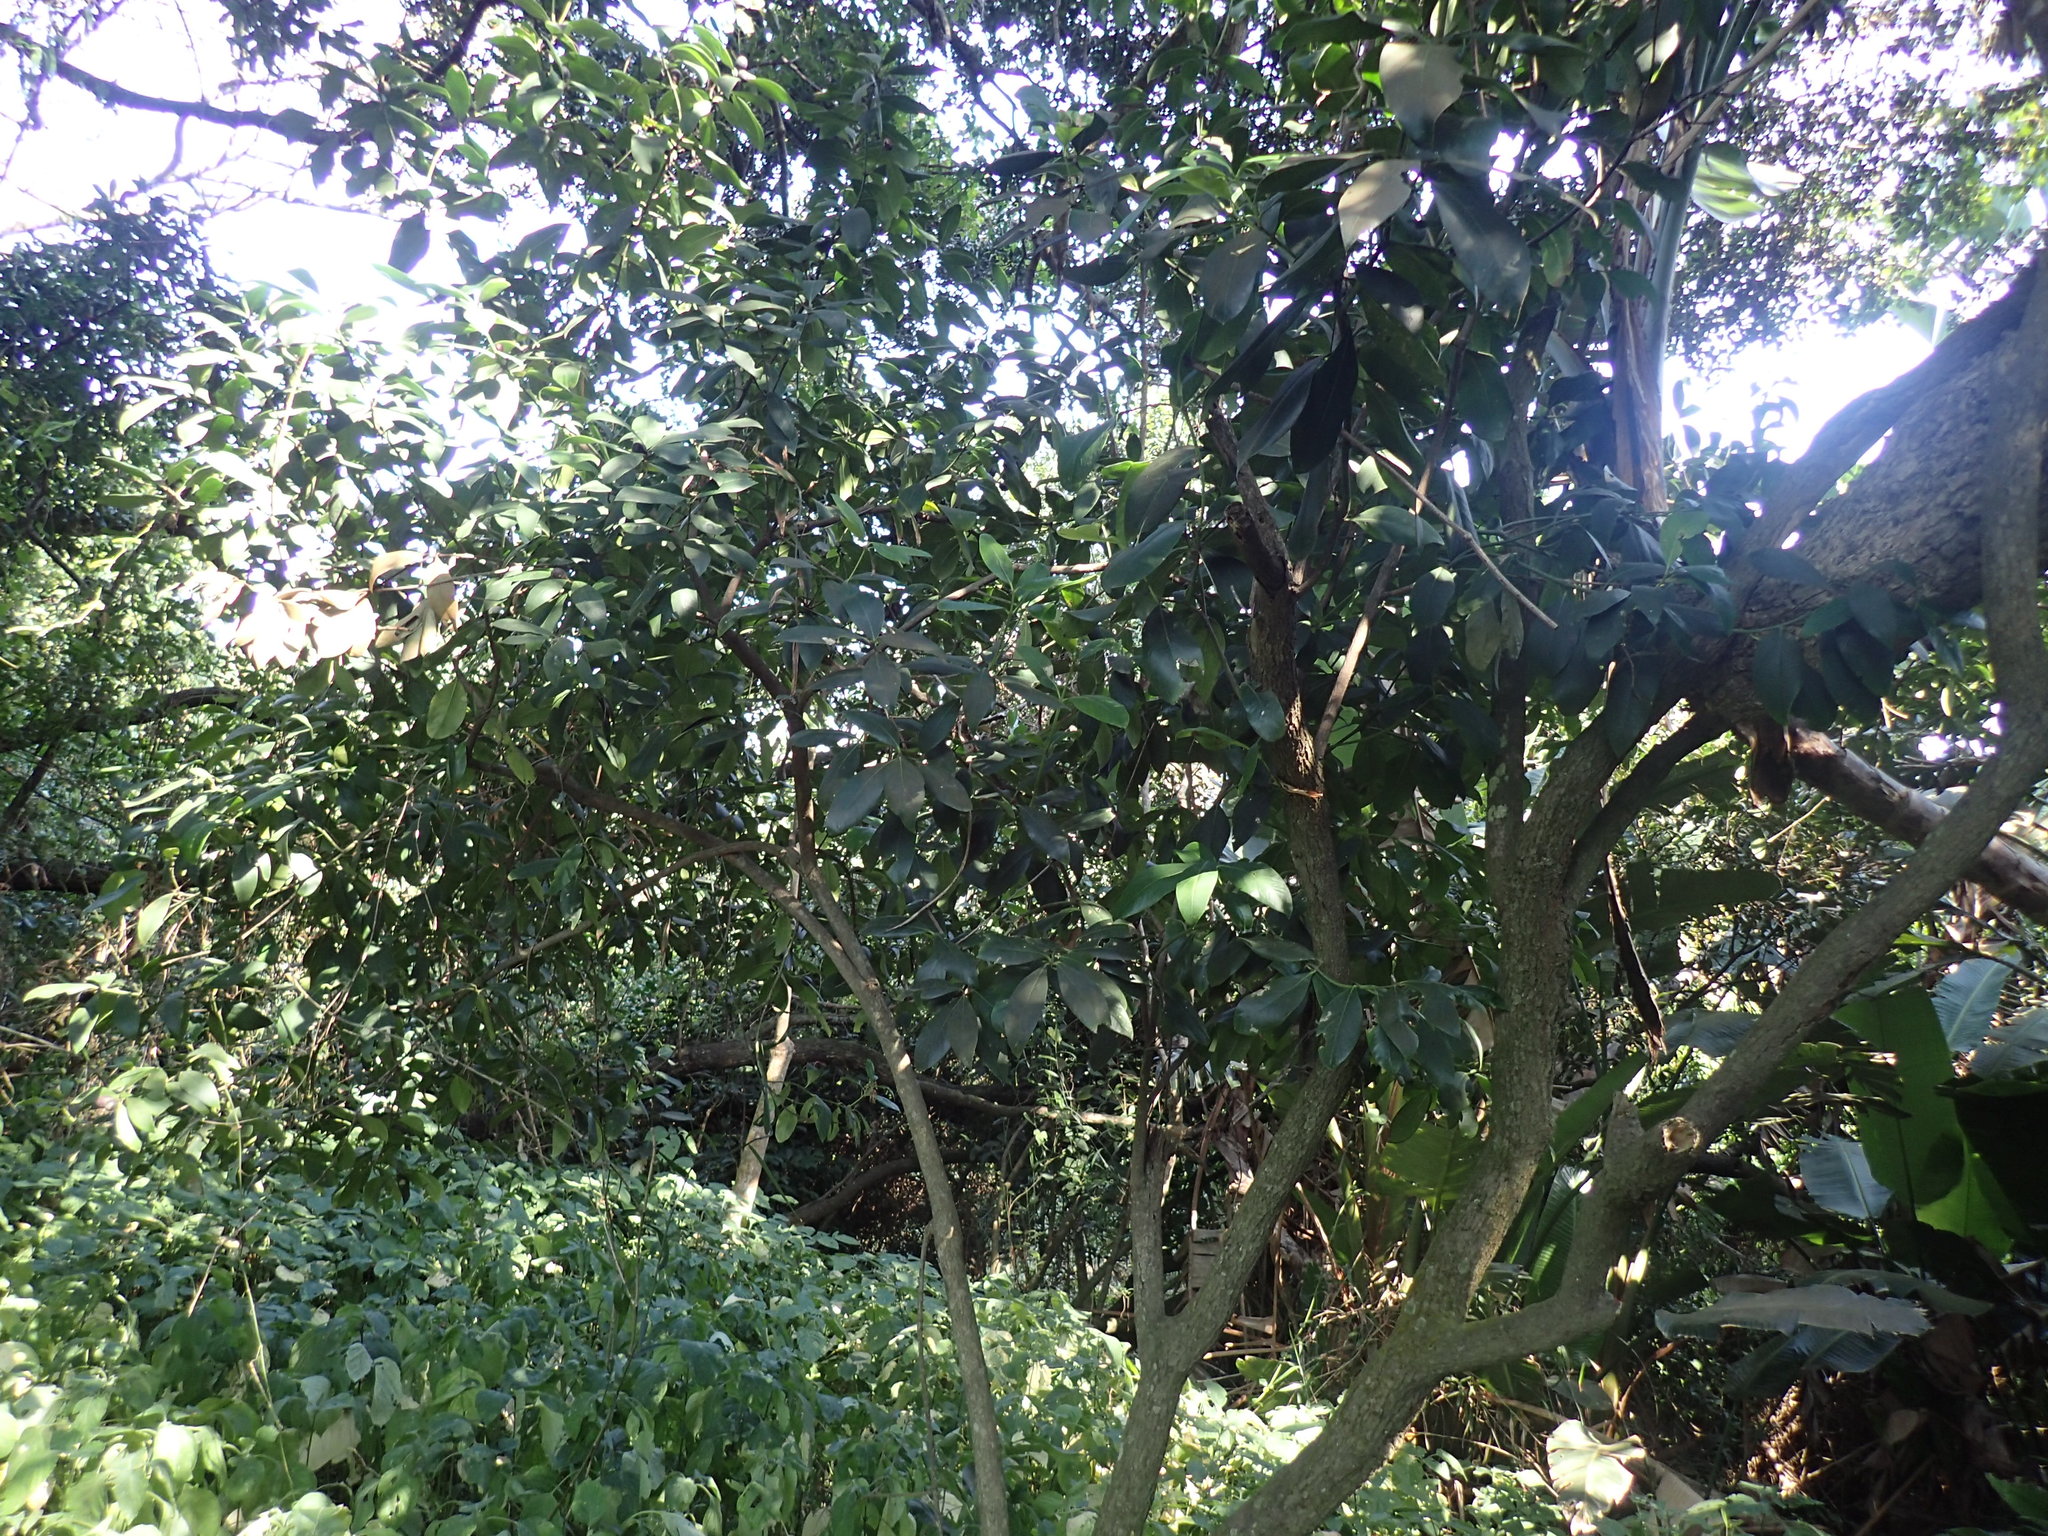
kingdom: Plantae
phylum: Tracheophyta
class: Magnoliopsida
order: Gentianales
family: Apocynaceae
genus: Acokanthera
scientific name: Acokanthera oblongifolia
